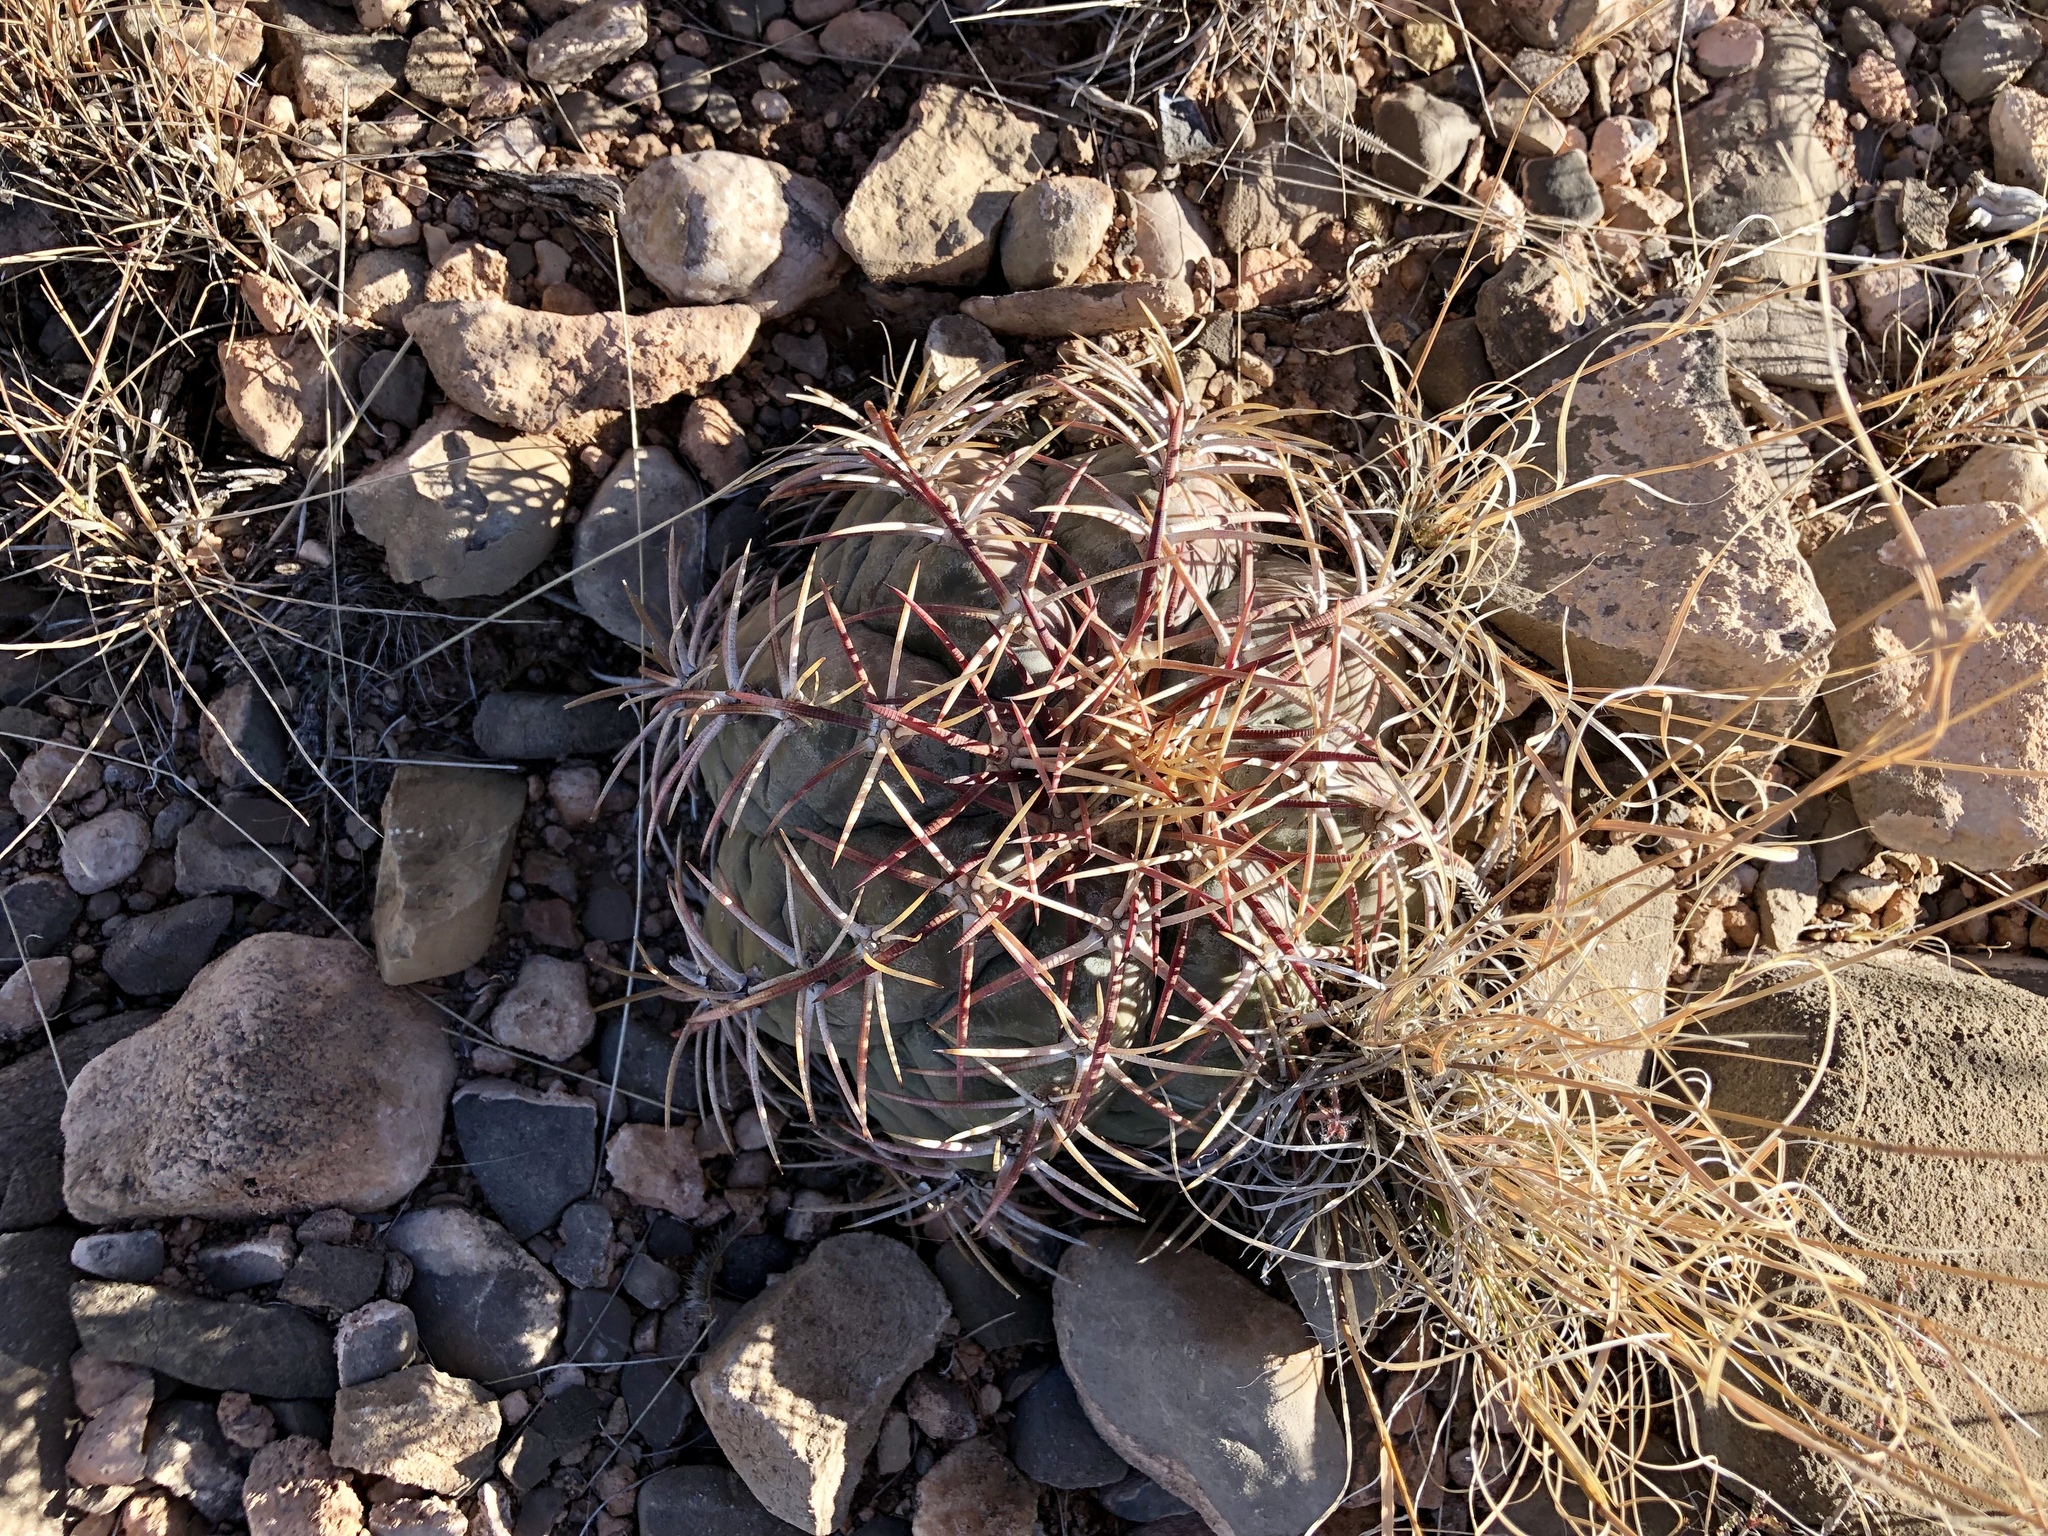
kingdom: Plantae
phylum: Tracheophyta
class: Magnoliopsida
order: Caryophyllales
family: Cactaceae
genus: Echinocactus
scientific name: Echinocactus horizonthalonius
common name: Devilshead
